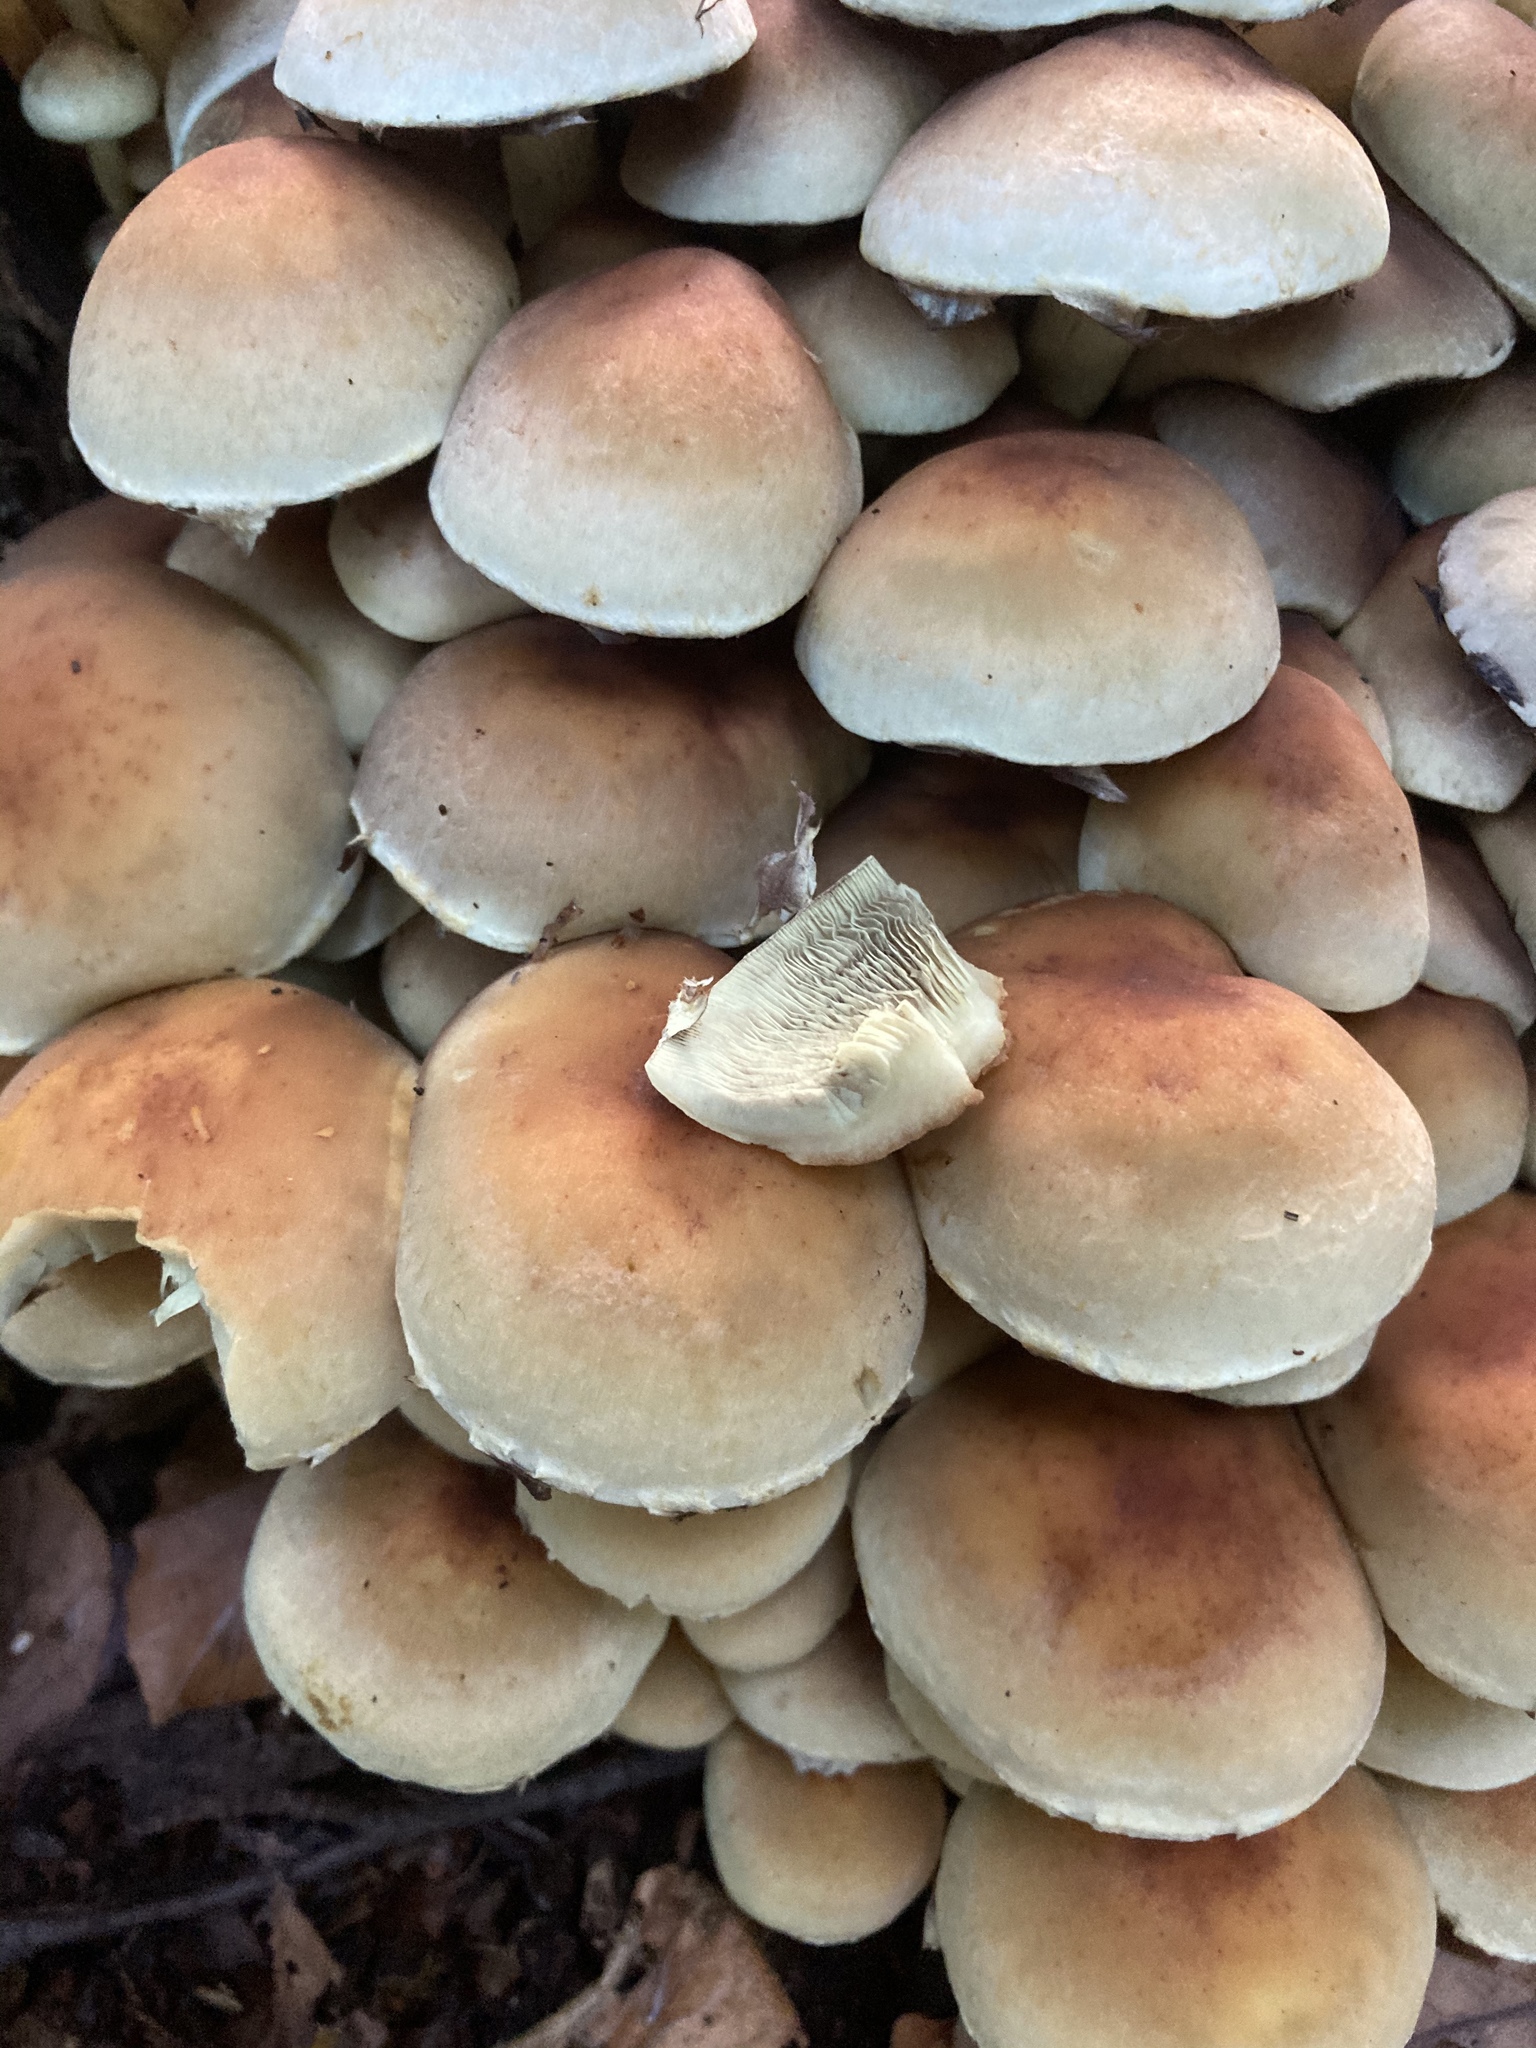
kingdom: Fungi
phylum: Basidiomycota
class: Agaricomycetes
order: Agaricales
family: Strophariaceae
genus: Hypholoma
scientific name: Hypholoma fasciculare
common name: Sulphur tuft
